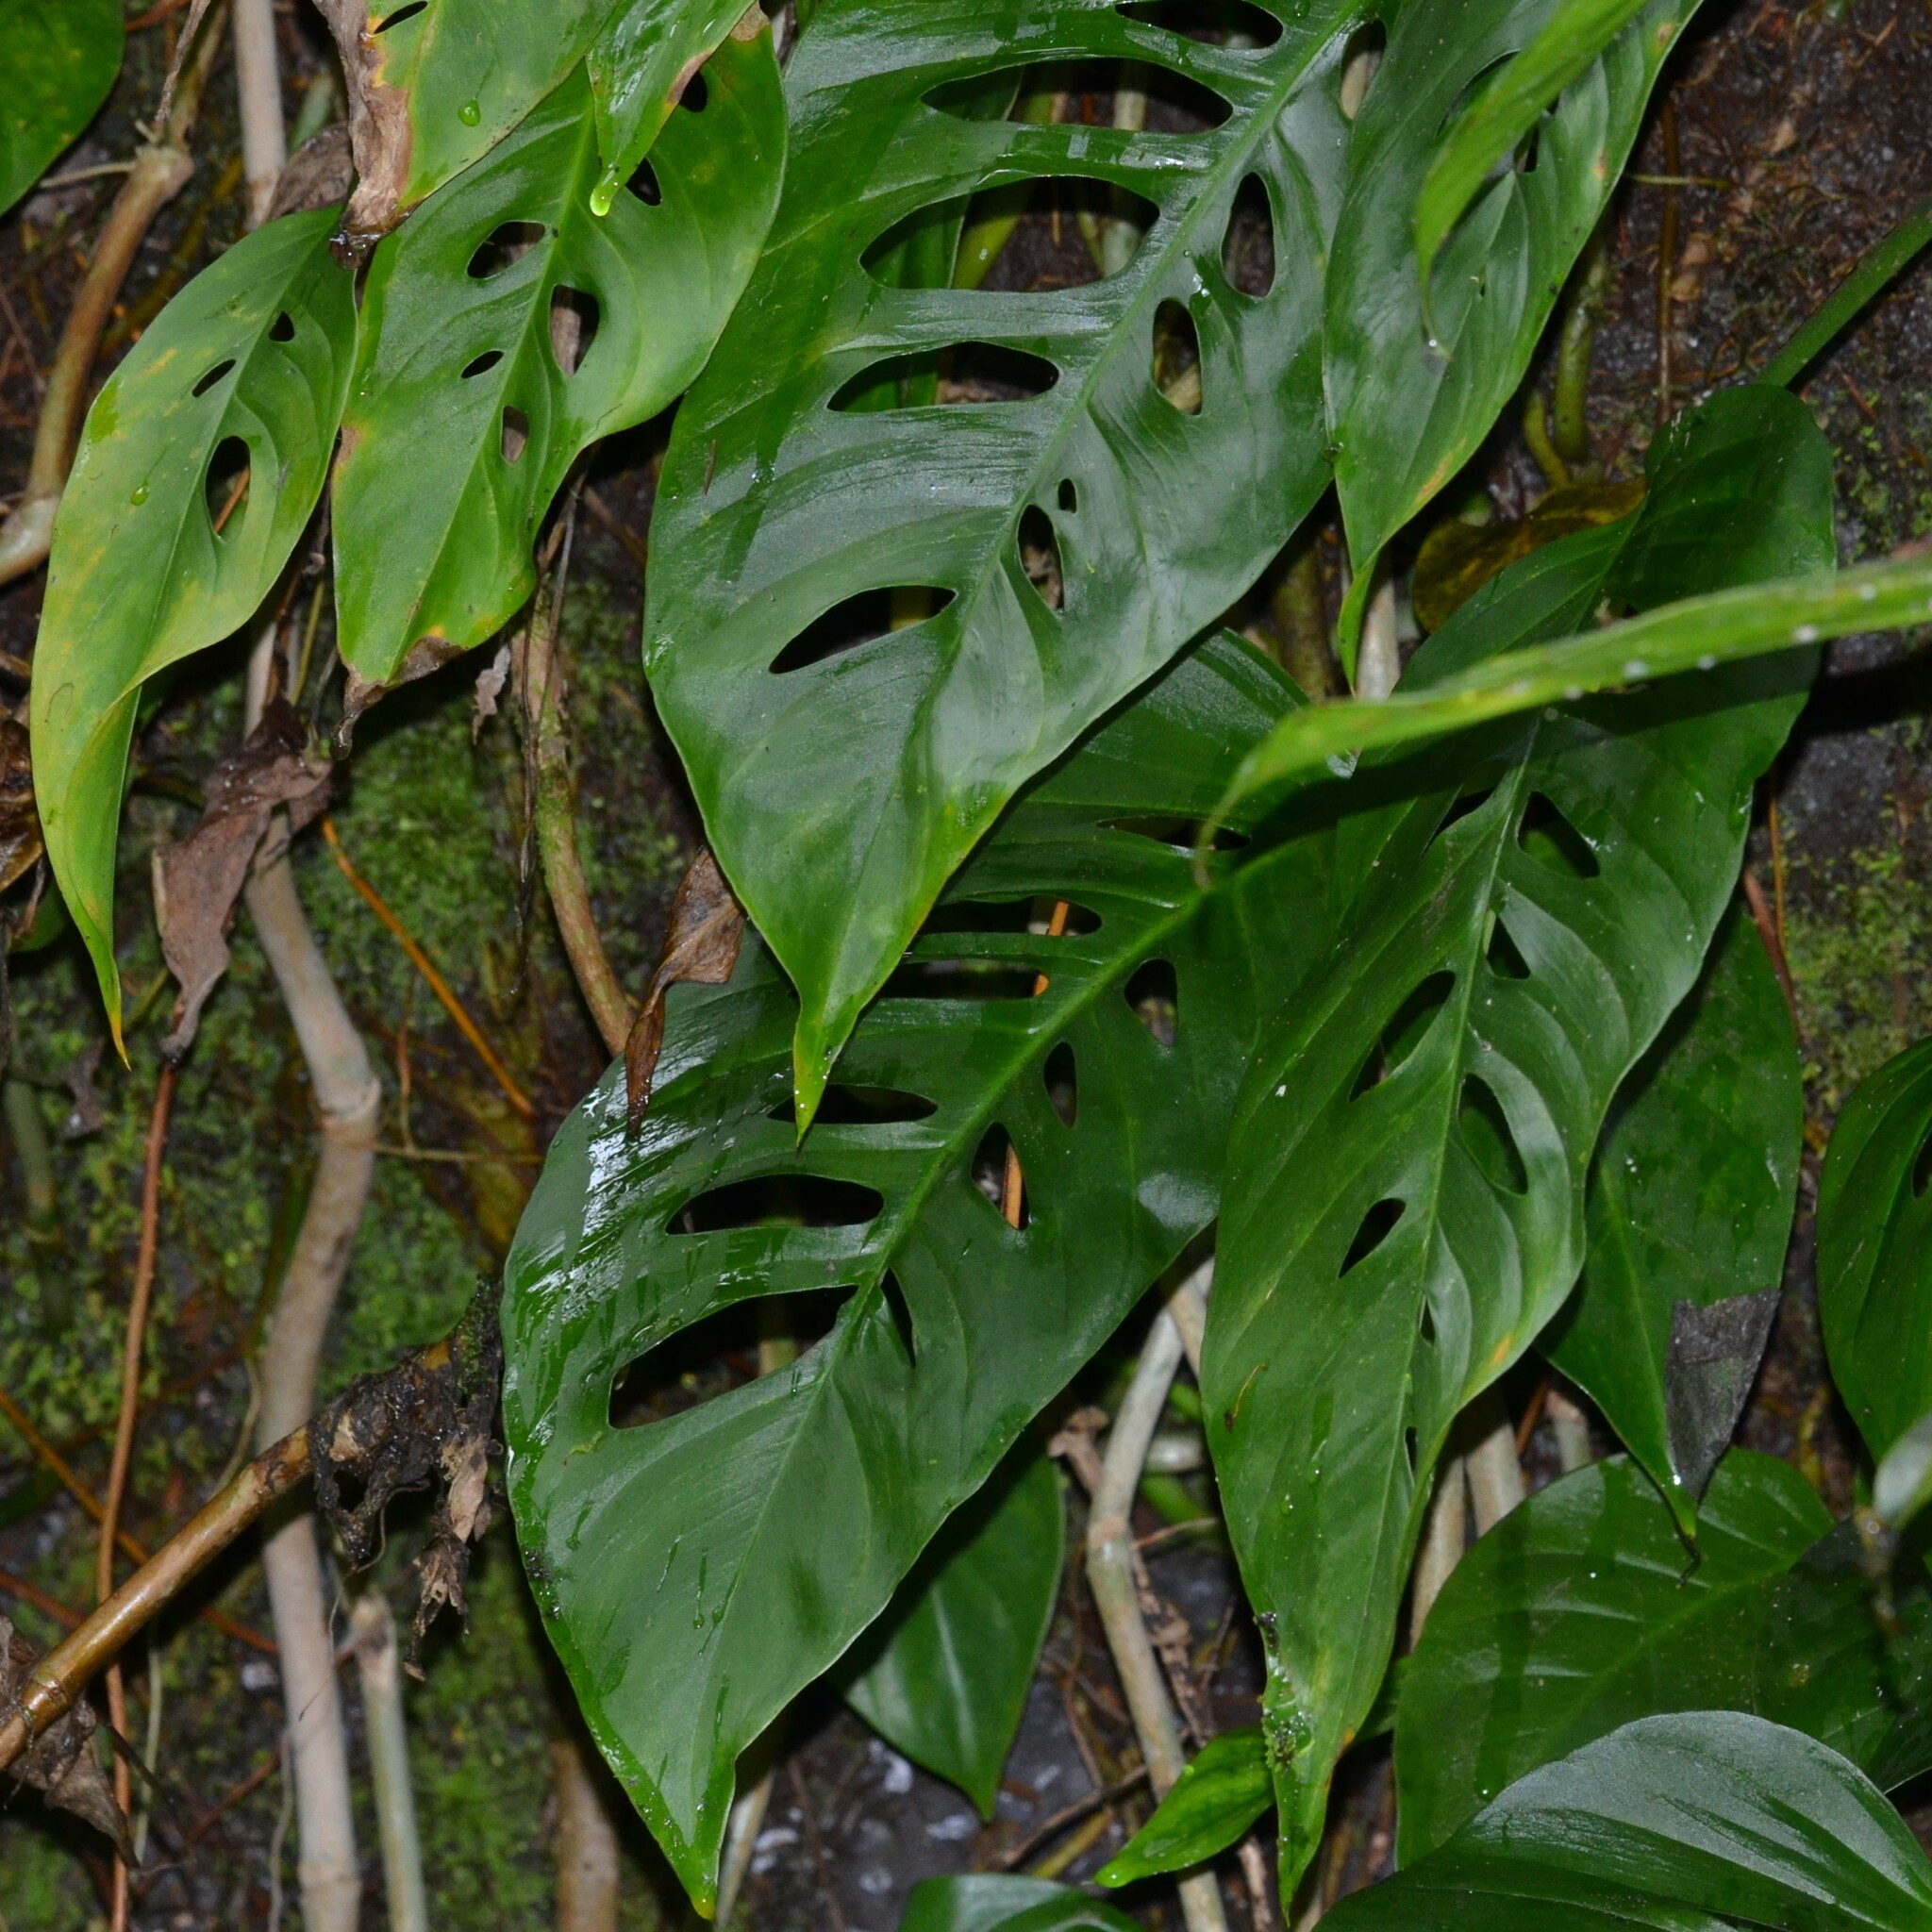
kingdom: Plantae
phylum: Tracheophyta
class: Liliopsida
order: Alismatales
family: Araceae
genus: Monstera
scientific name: Monstera adansonii
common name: Tarovine
